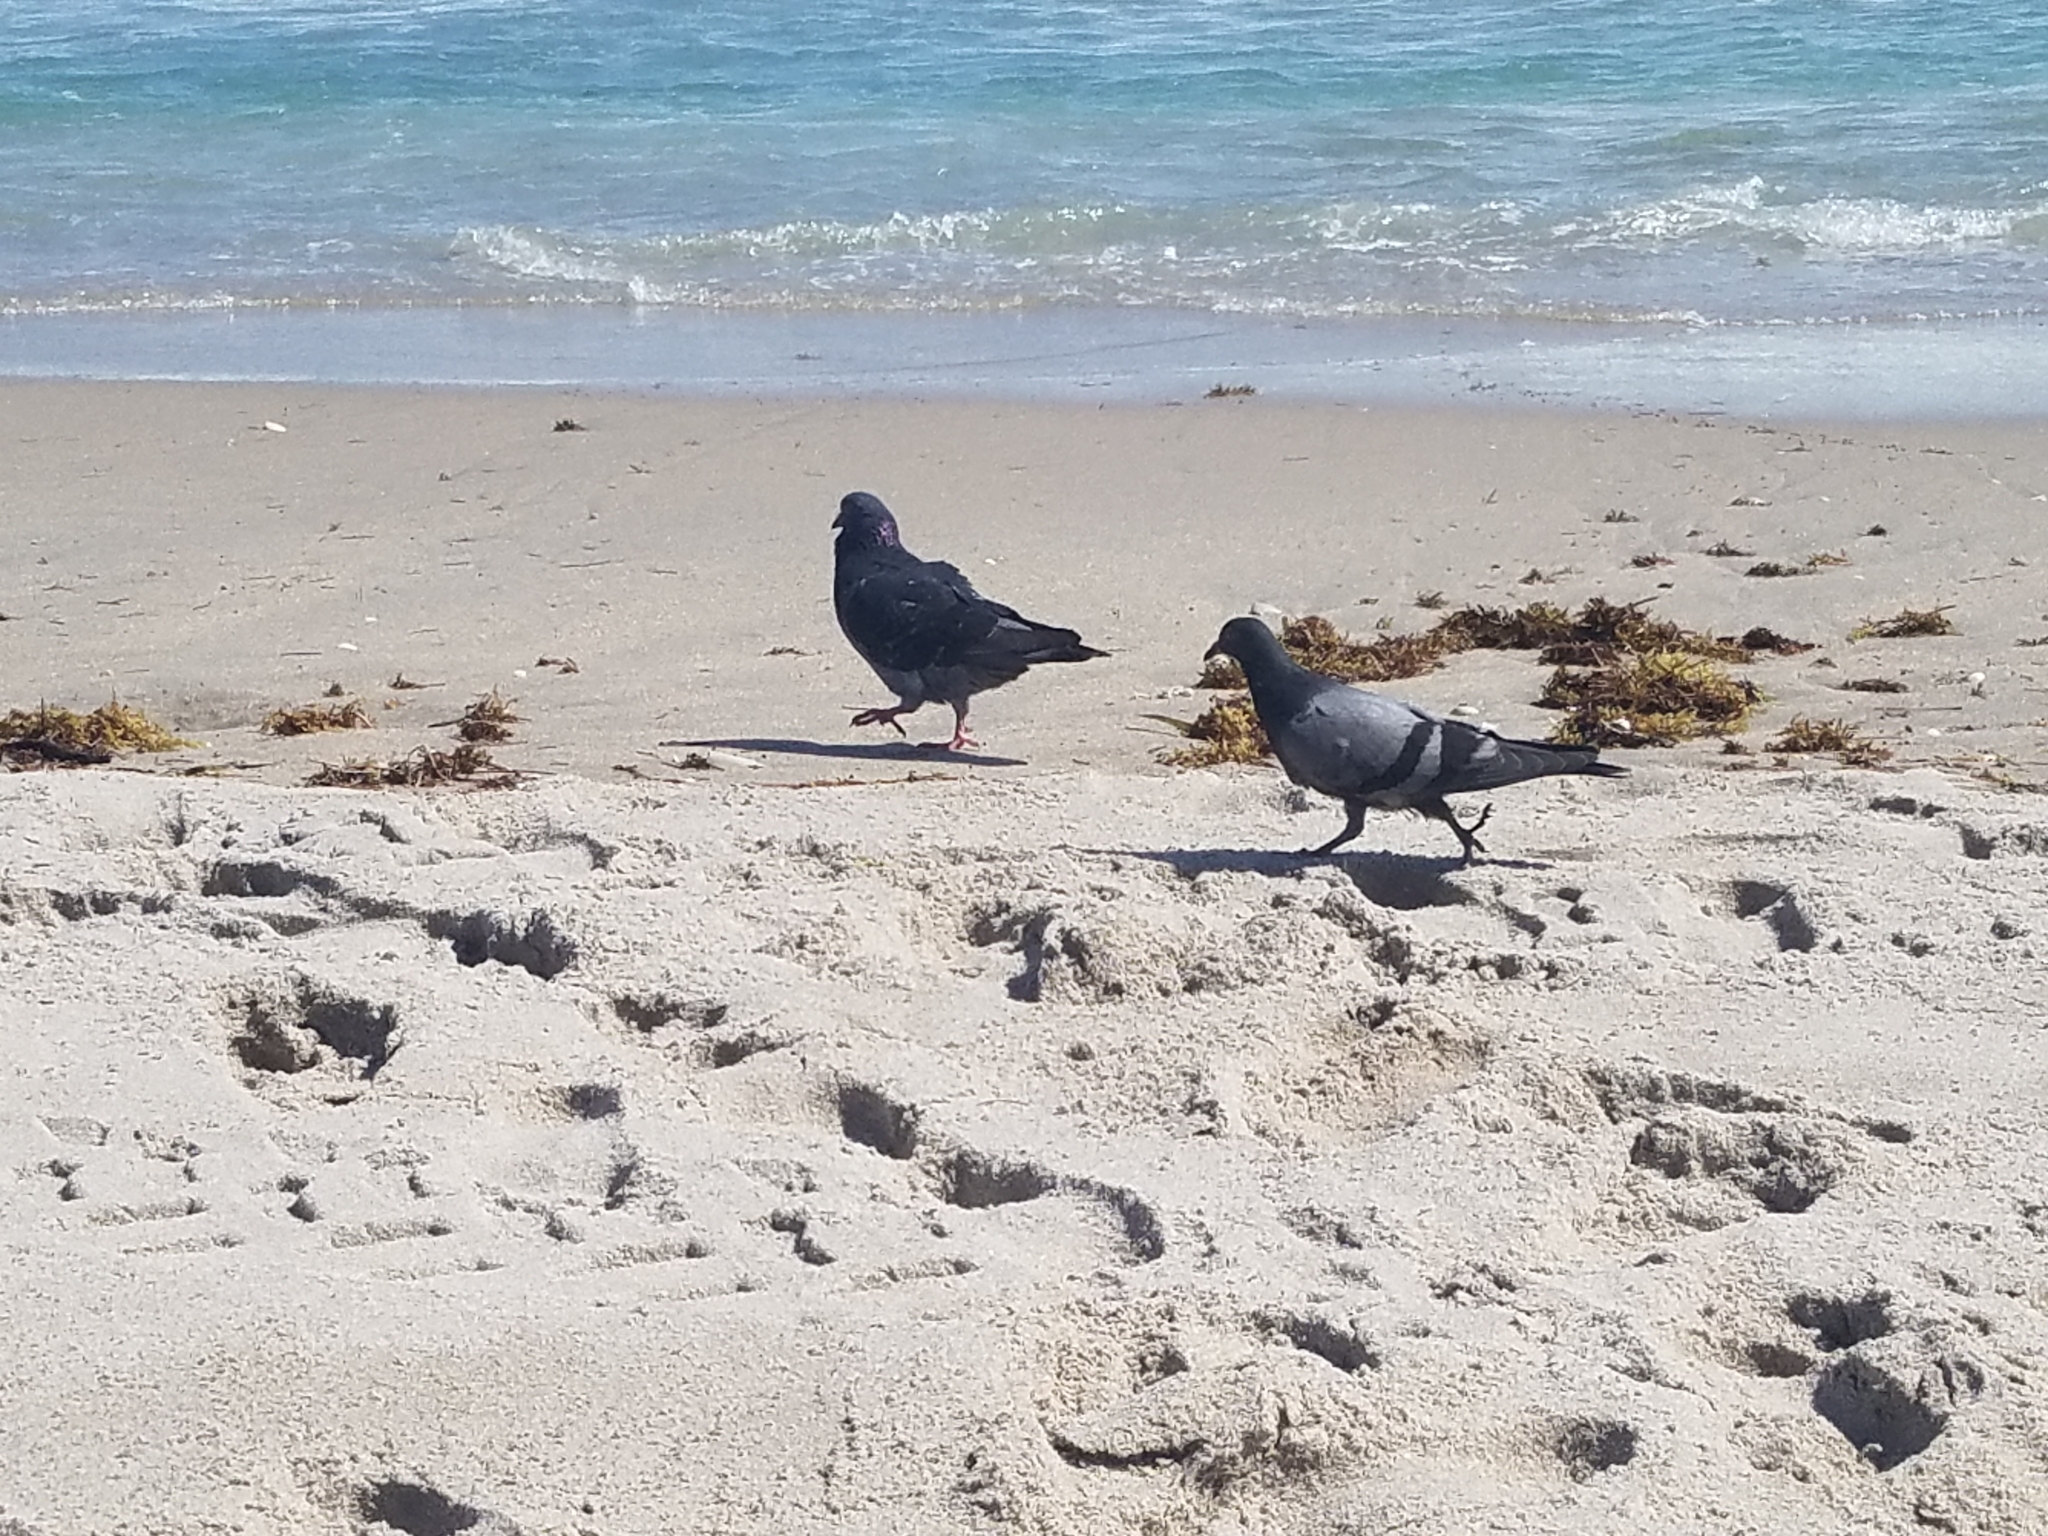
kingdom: Animalia
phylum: Chordata
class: Aves
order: Columbiformes
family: Columbidae
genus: Columba
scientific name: Columba livia
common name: Rock pigeon
